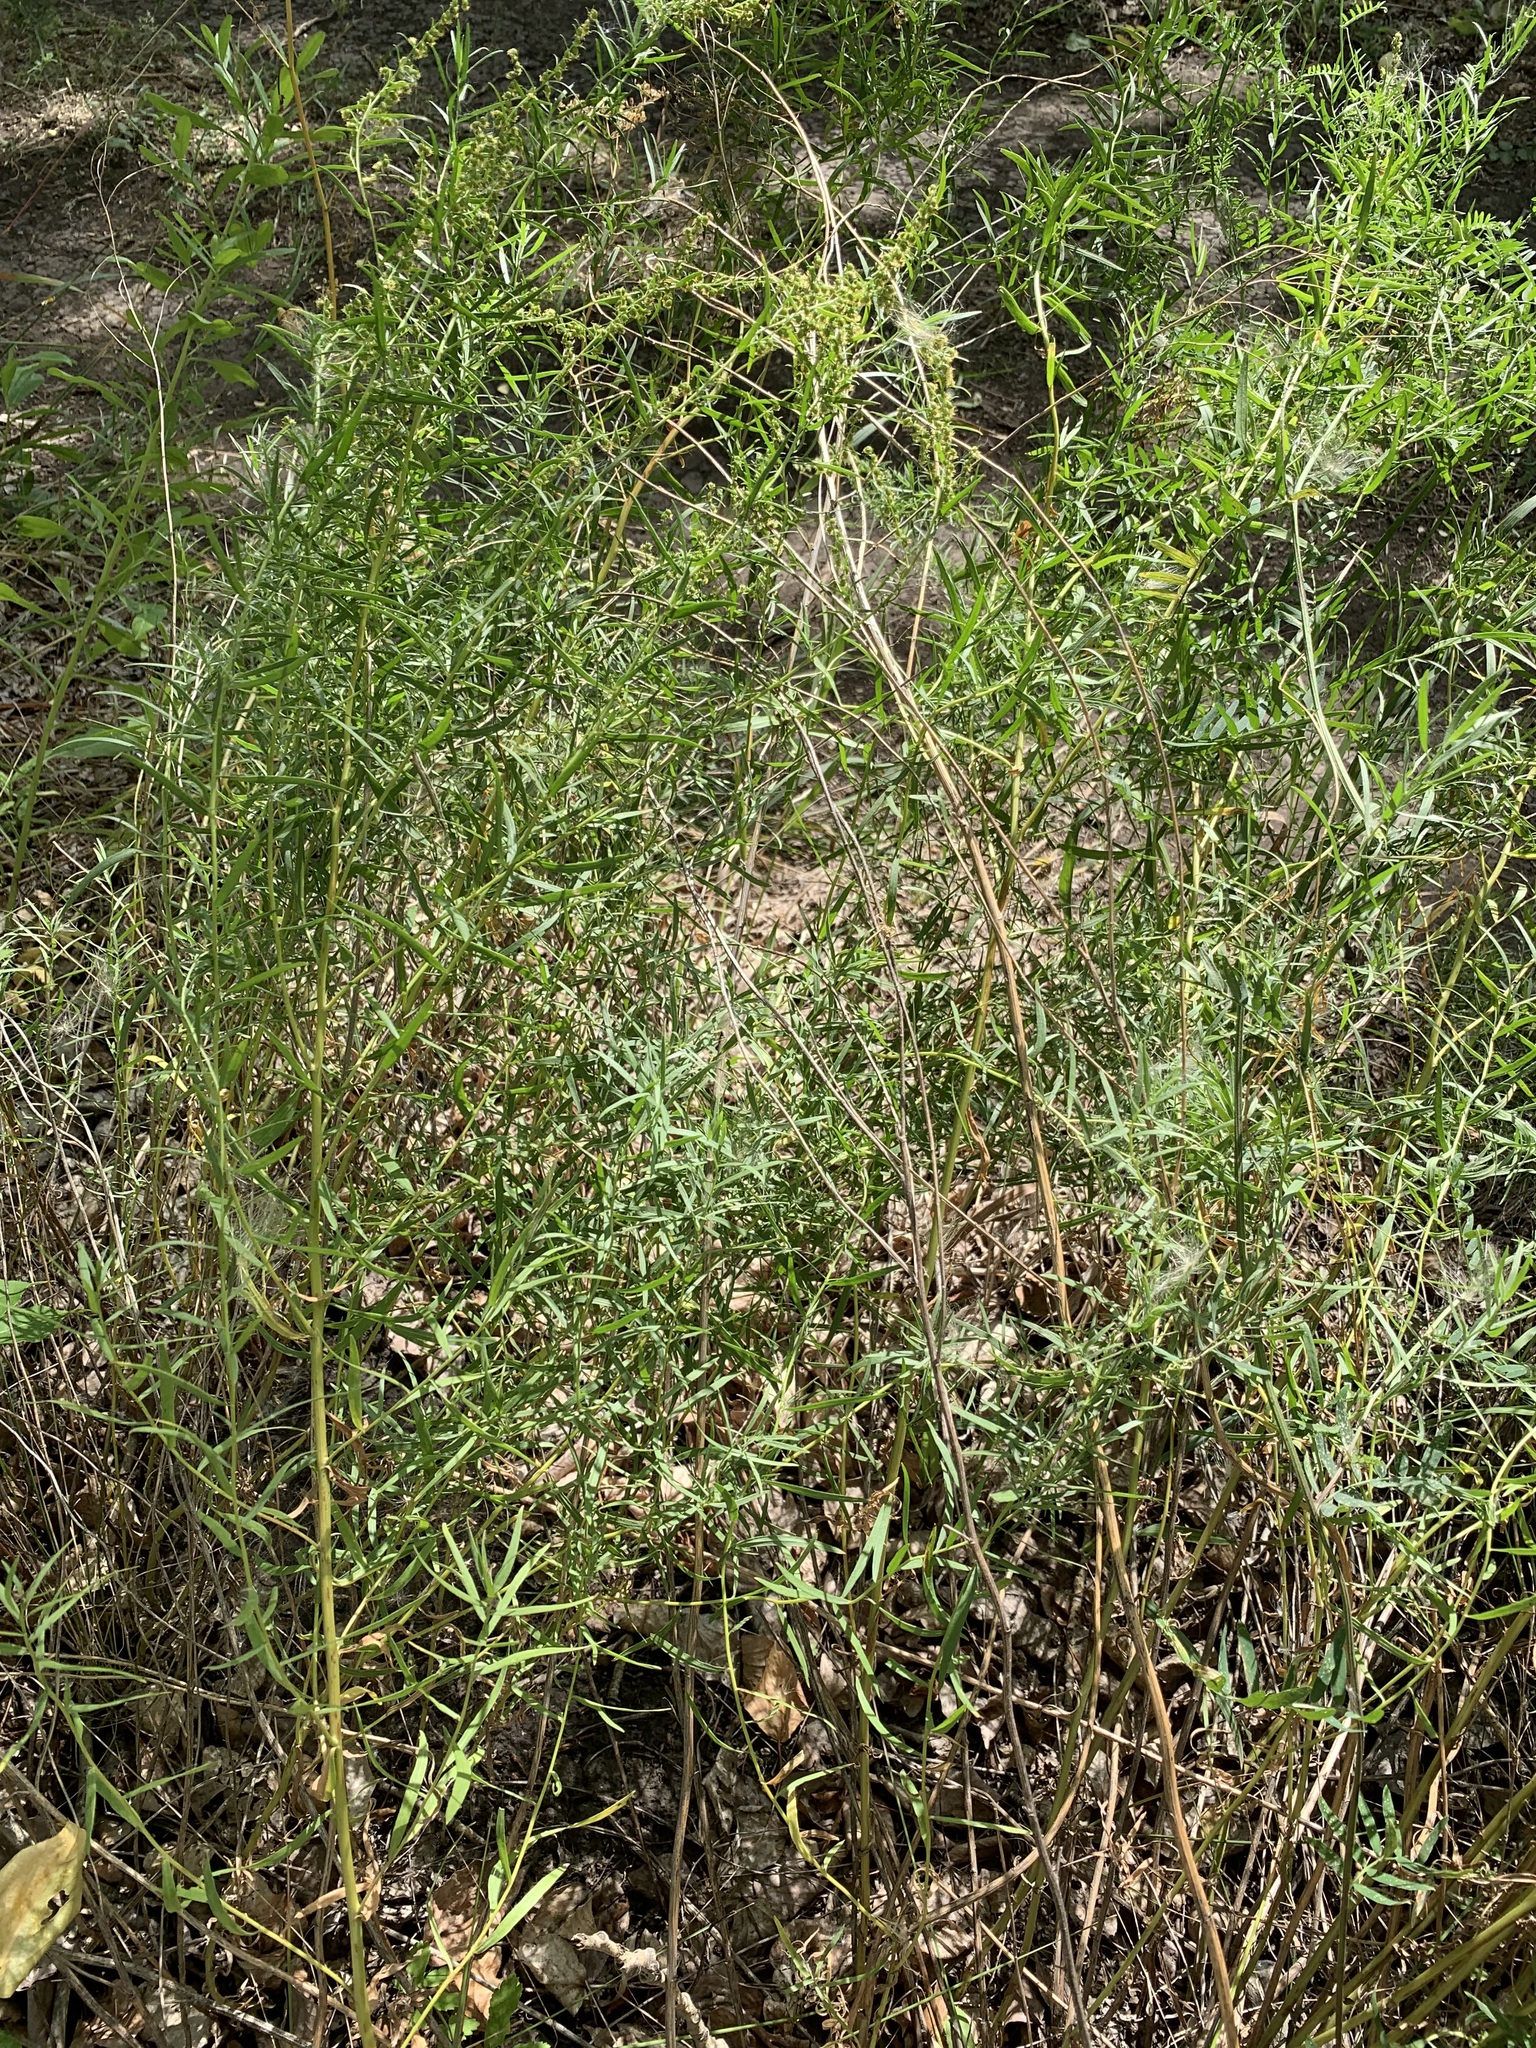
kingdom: Plantae
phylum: Tracheophyta
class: Magnoliopsida
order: Asterales
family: Asteraceae
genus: Artemisia
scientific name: Artemisia dracunculus
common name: Tarragon
